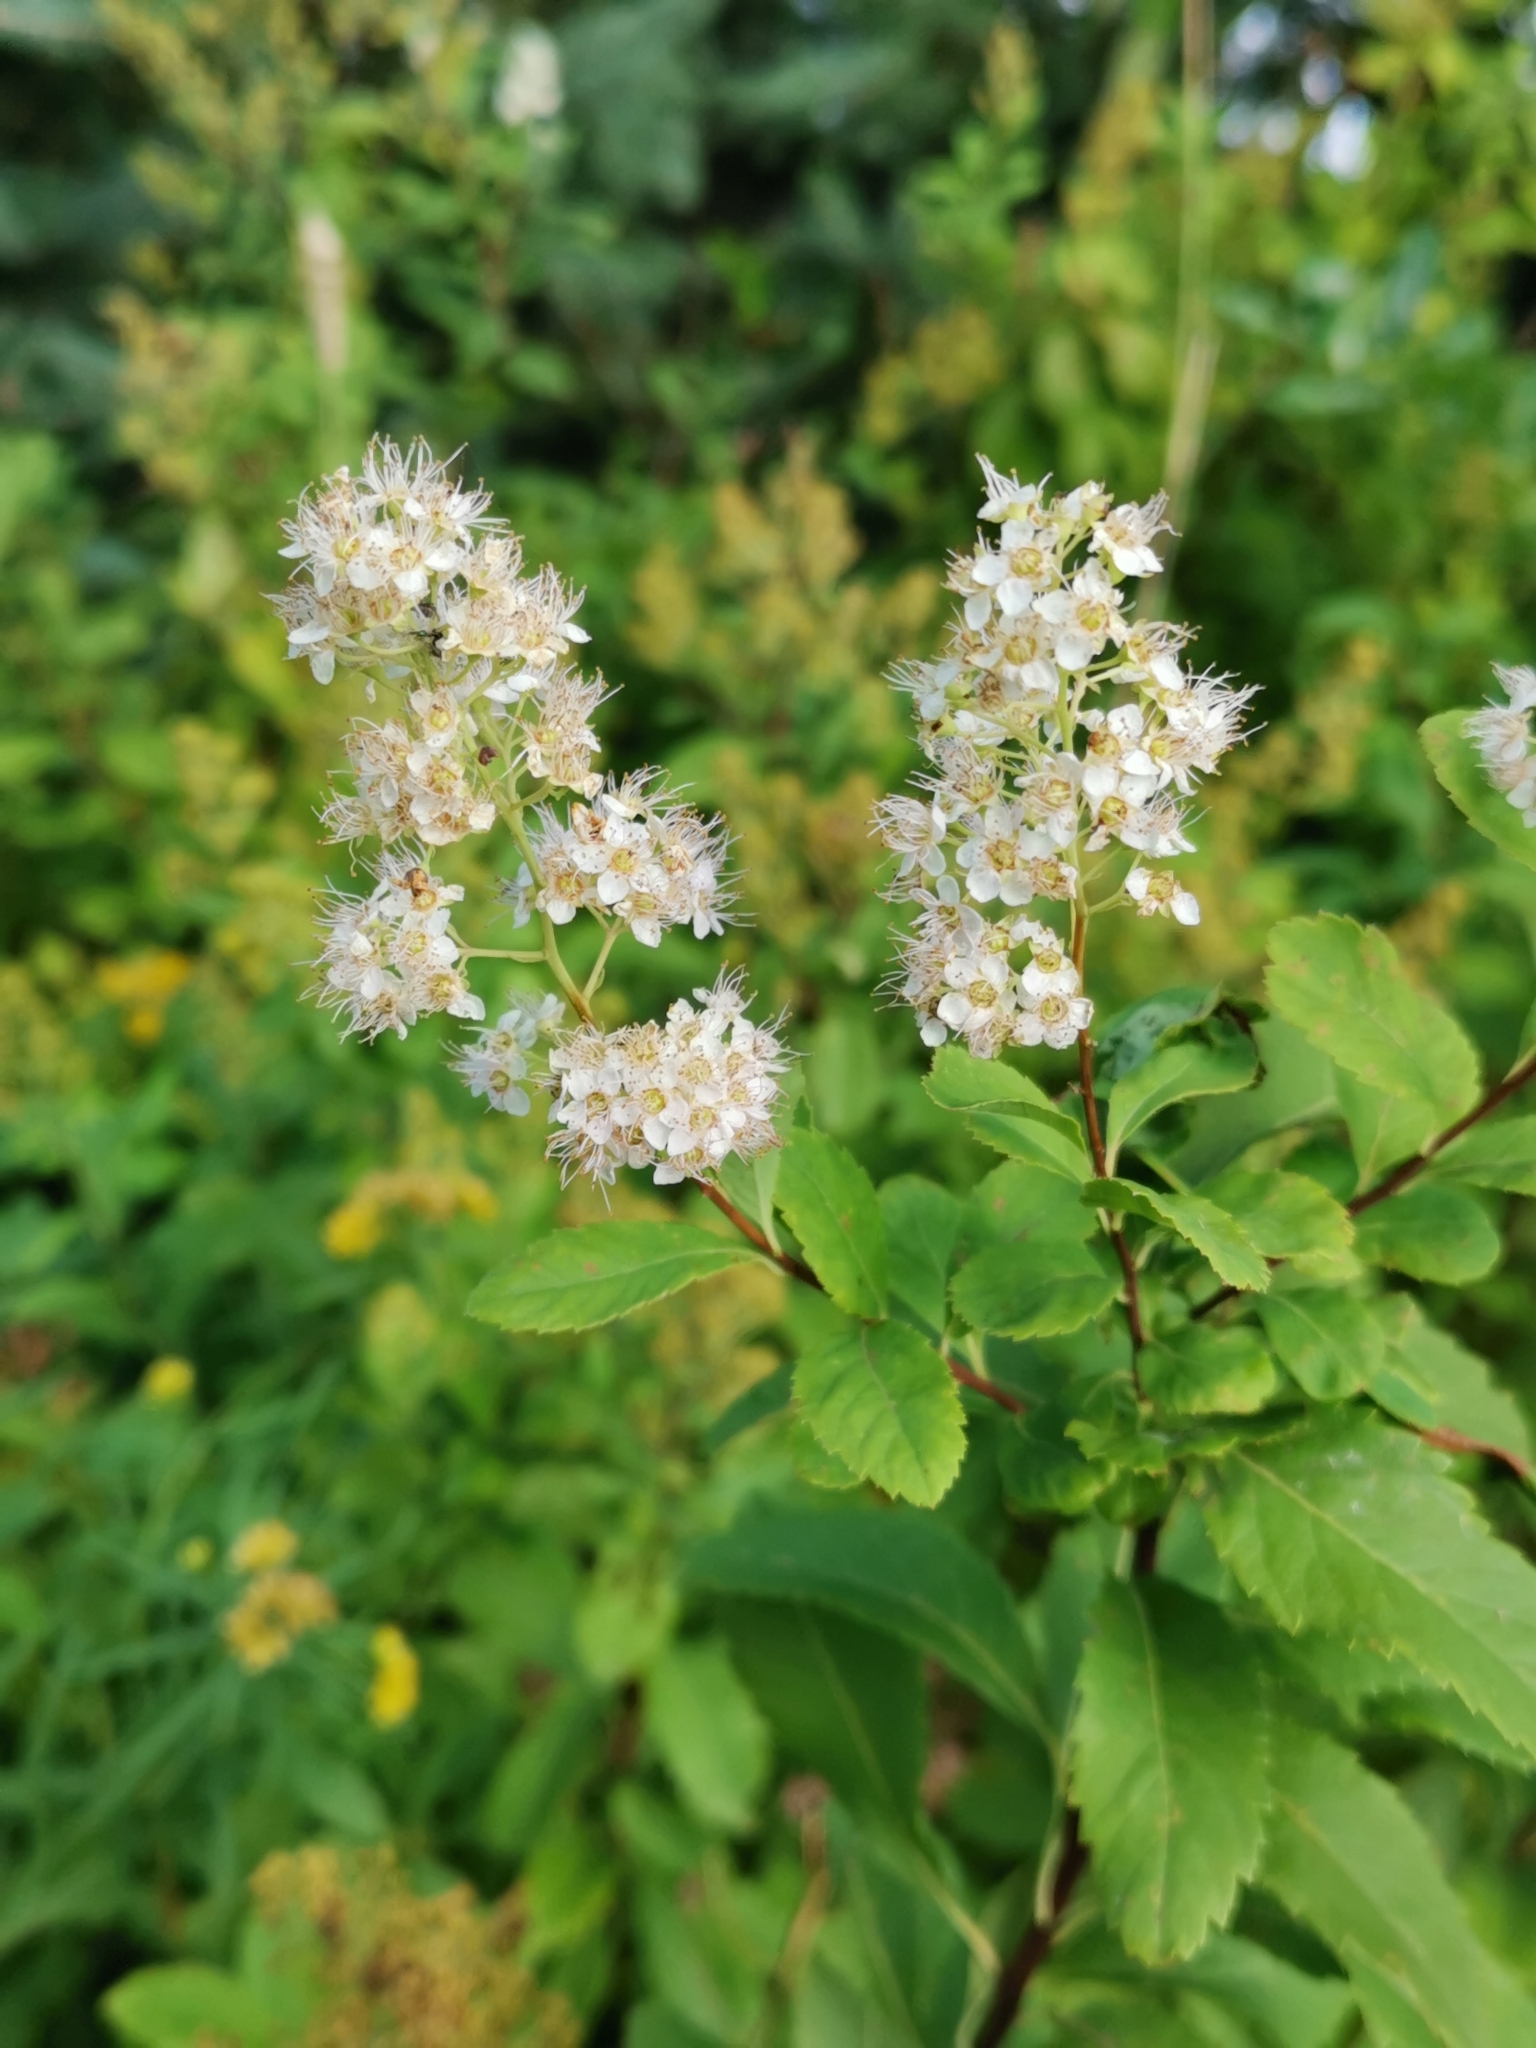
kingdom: Plantae
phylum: Tracheophyta
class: Magnoliopsida
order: Rosales
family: Rosaceae
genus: Spiraea
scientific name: Spiraea alba
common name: Pale bridewort
